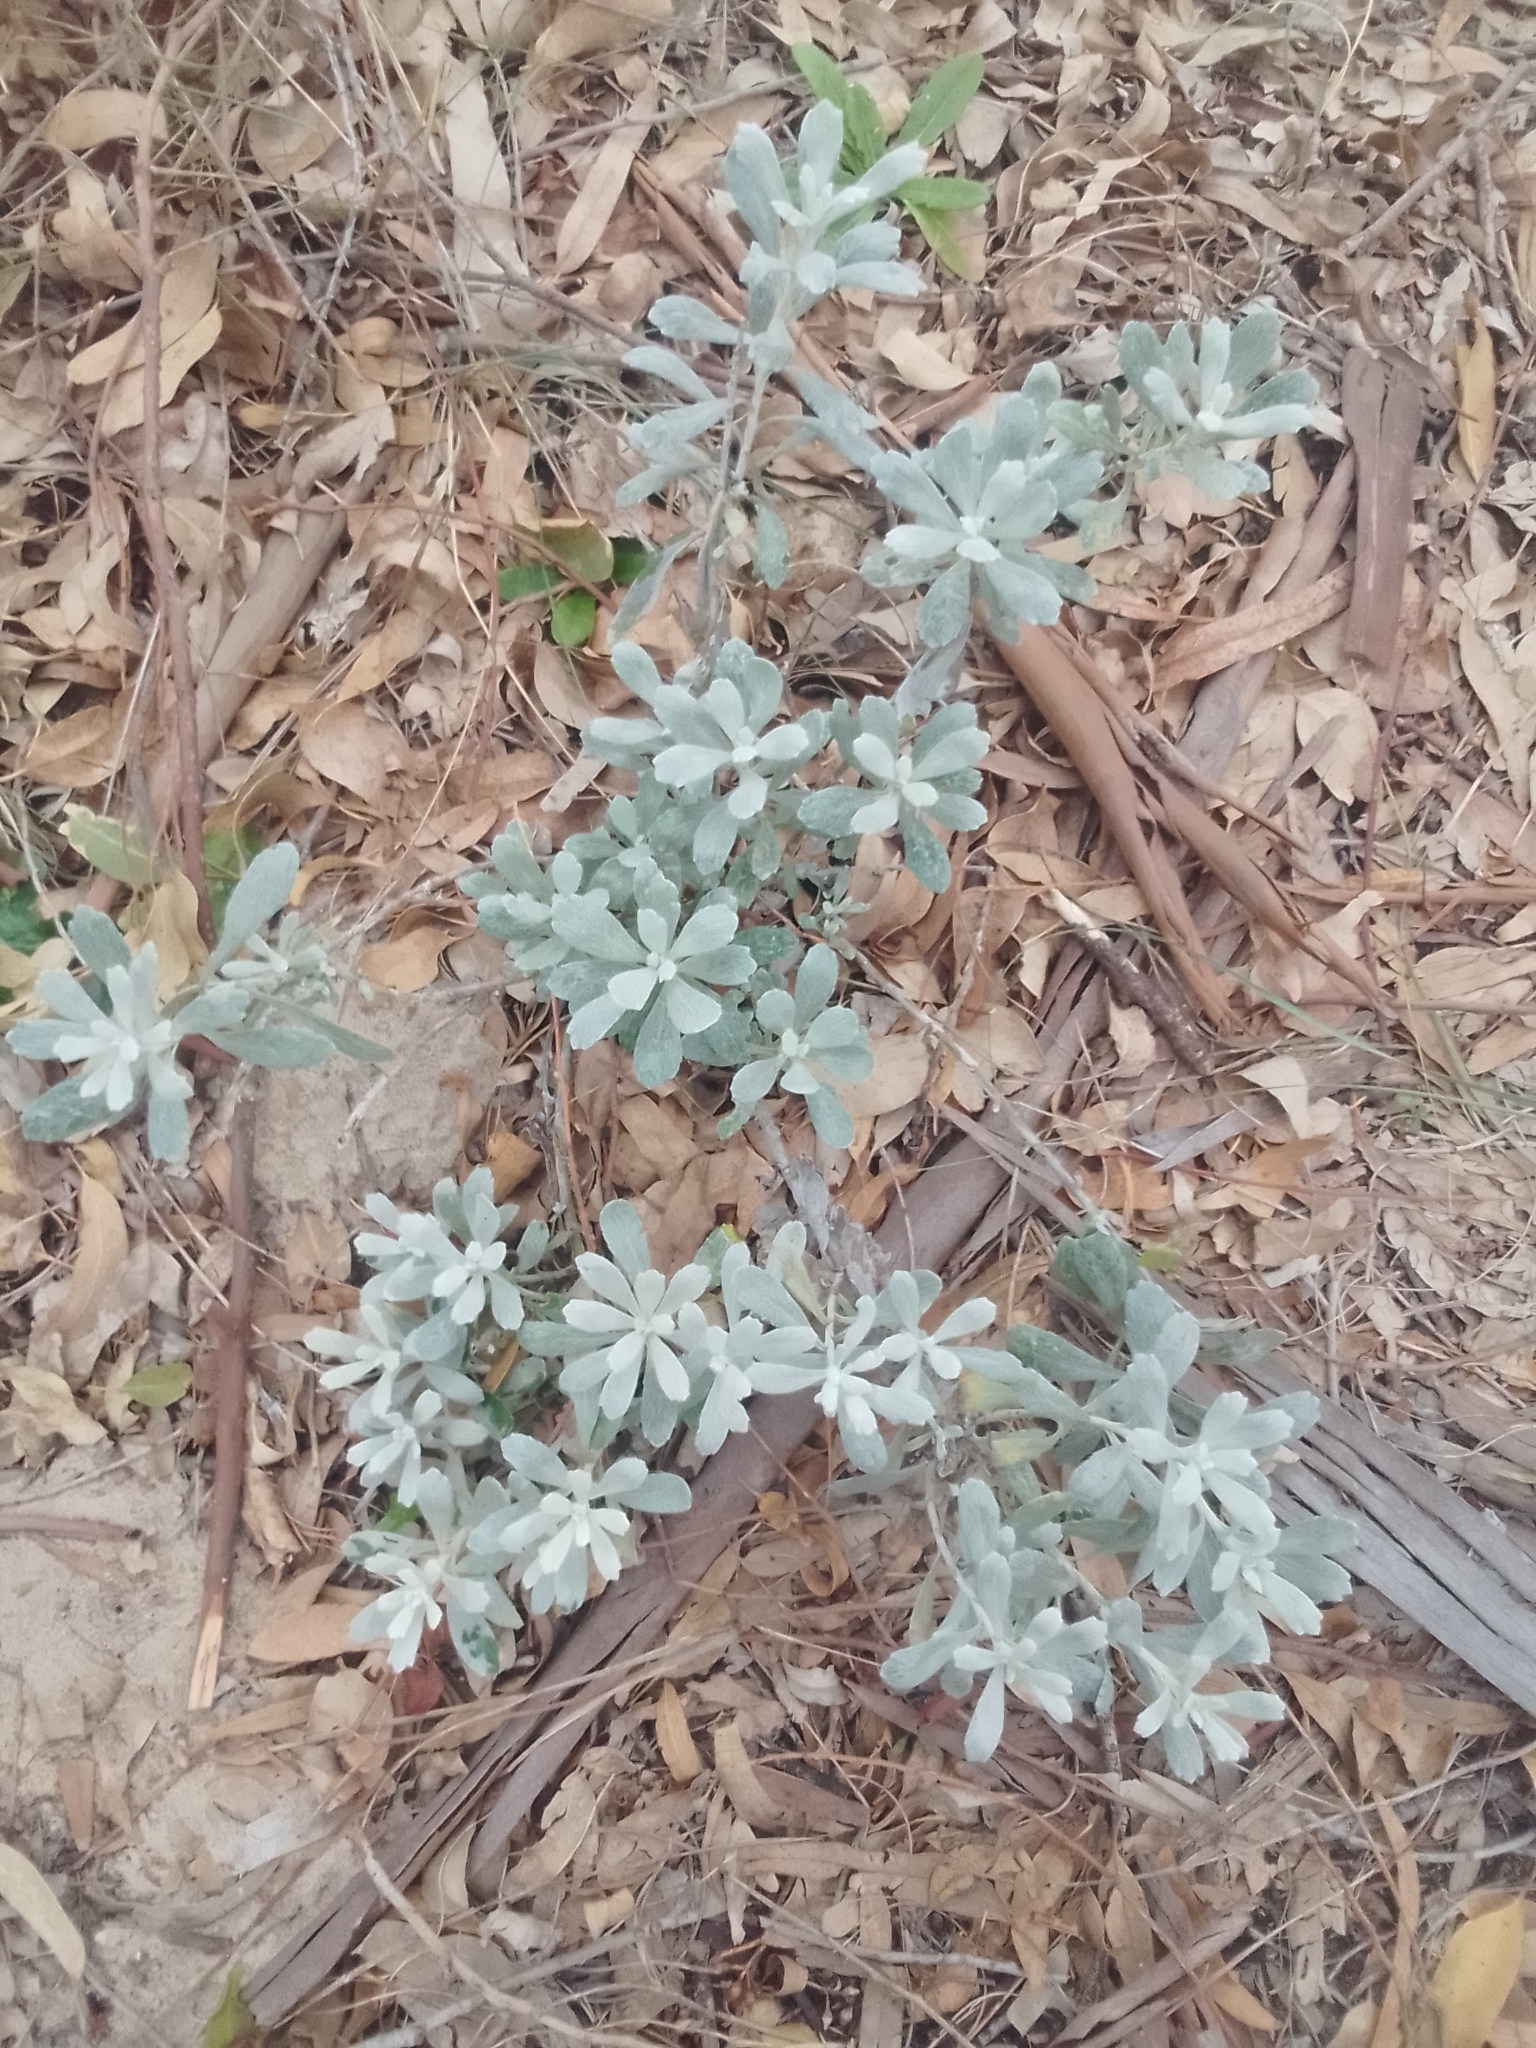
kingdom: Plantae
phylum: Tracheophyta
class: Magnoliopsida
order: Asterales
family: Asteraceae
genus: Senecio
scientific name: Senecio crassiflorus
